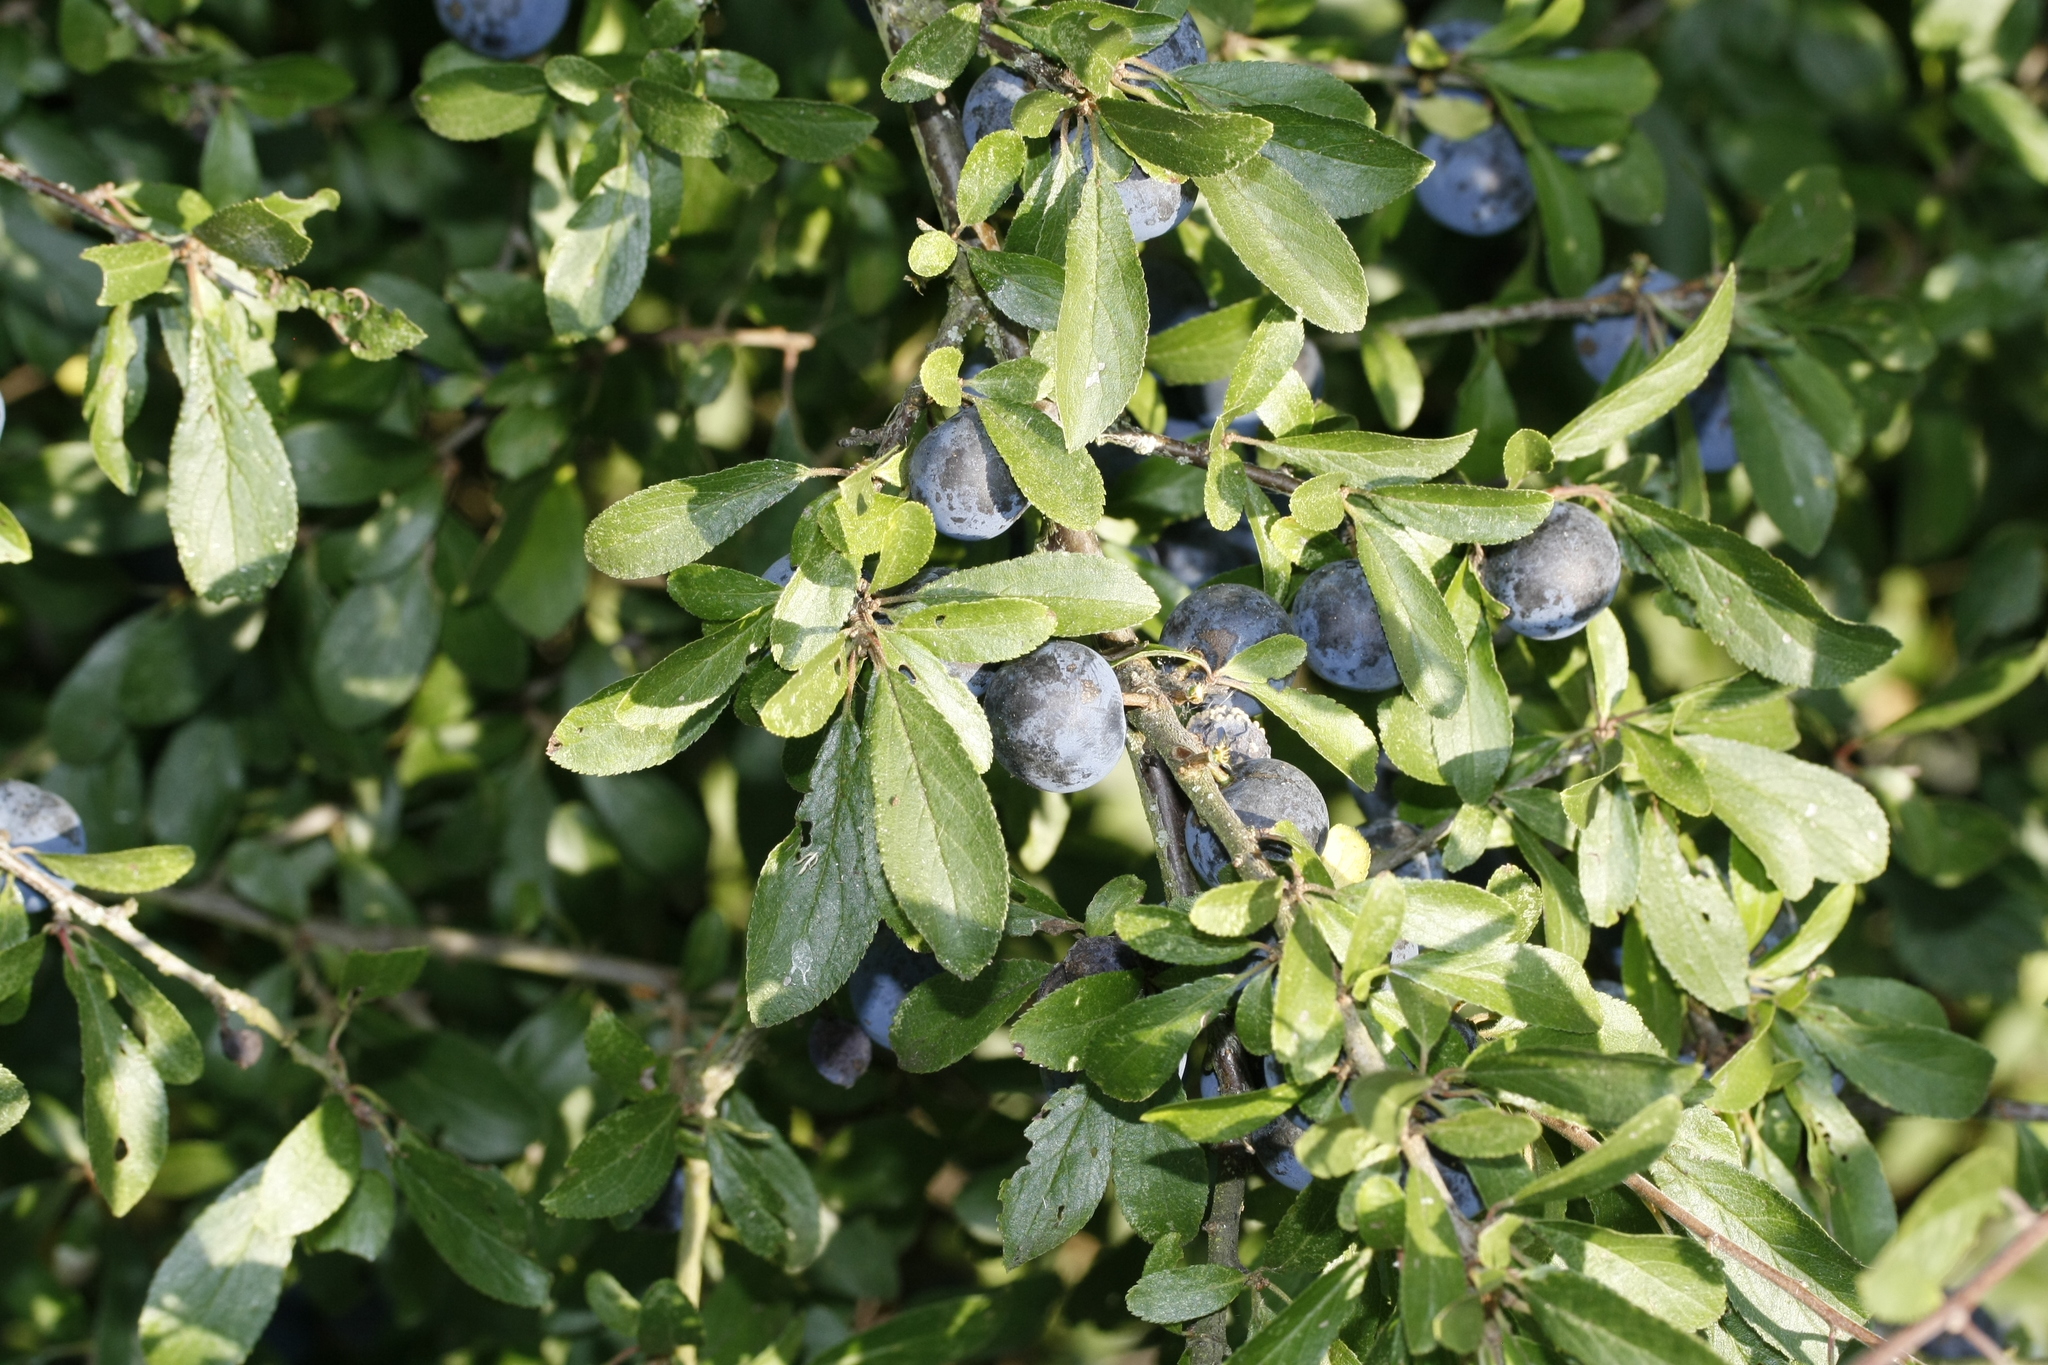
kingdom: Plantae
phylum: Tracheophyta
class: Magnoliopsida
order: Rosales
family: Rosaceae
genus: Prunus
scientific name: Prunus spinosa
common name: Blackthorn
